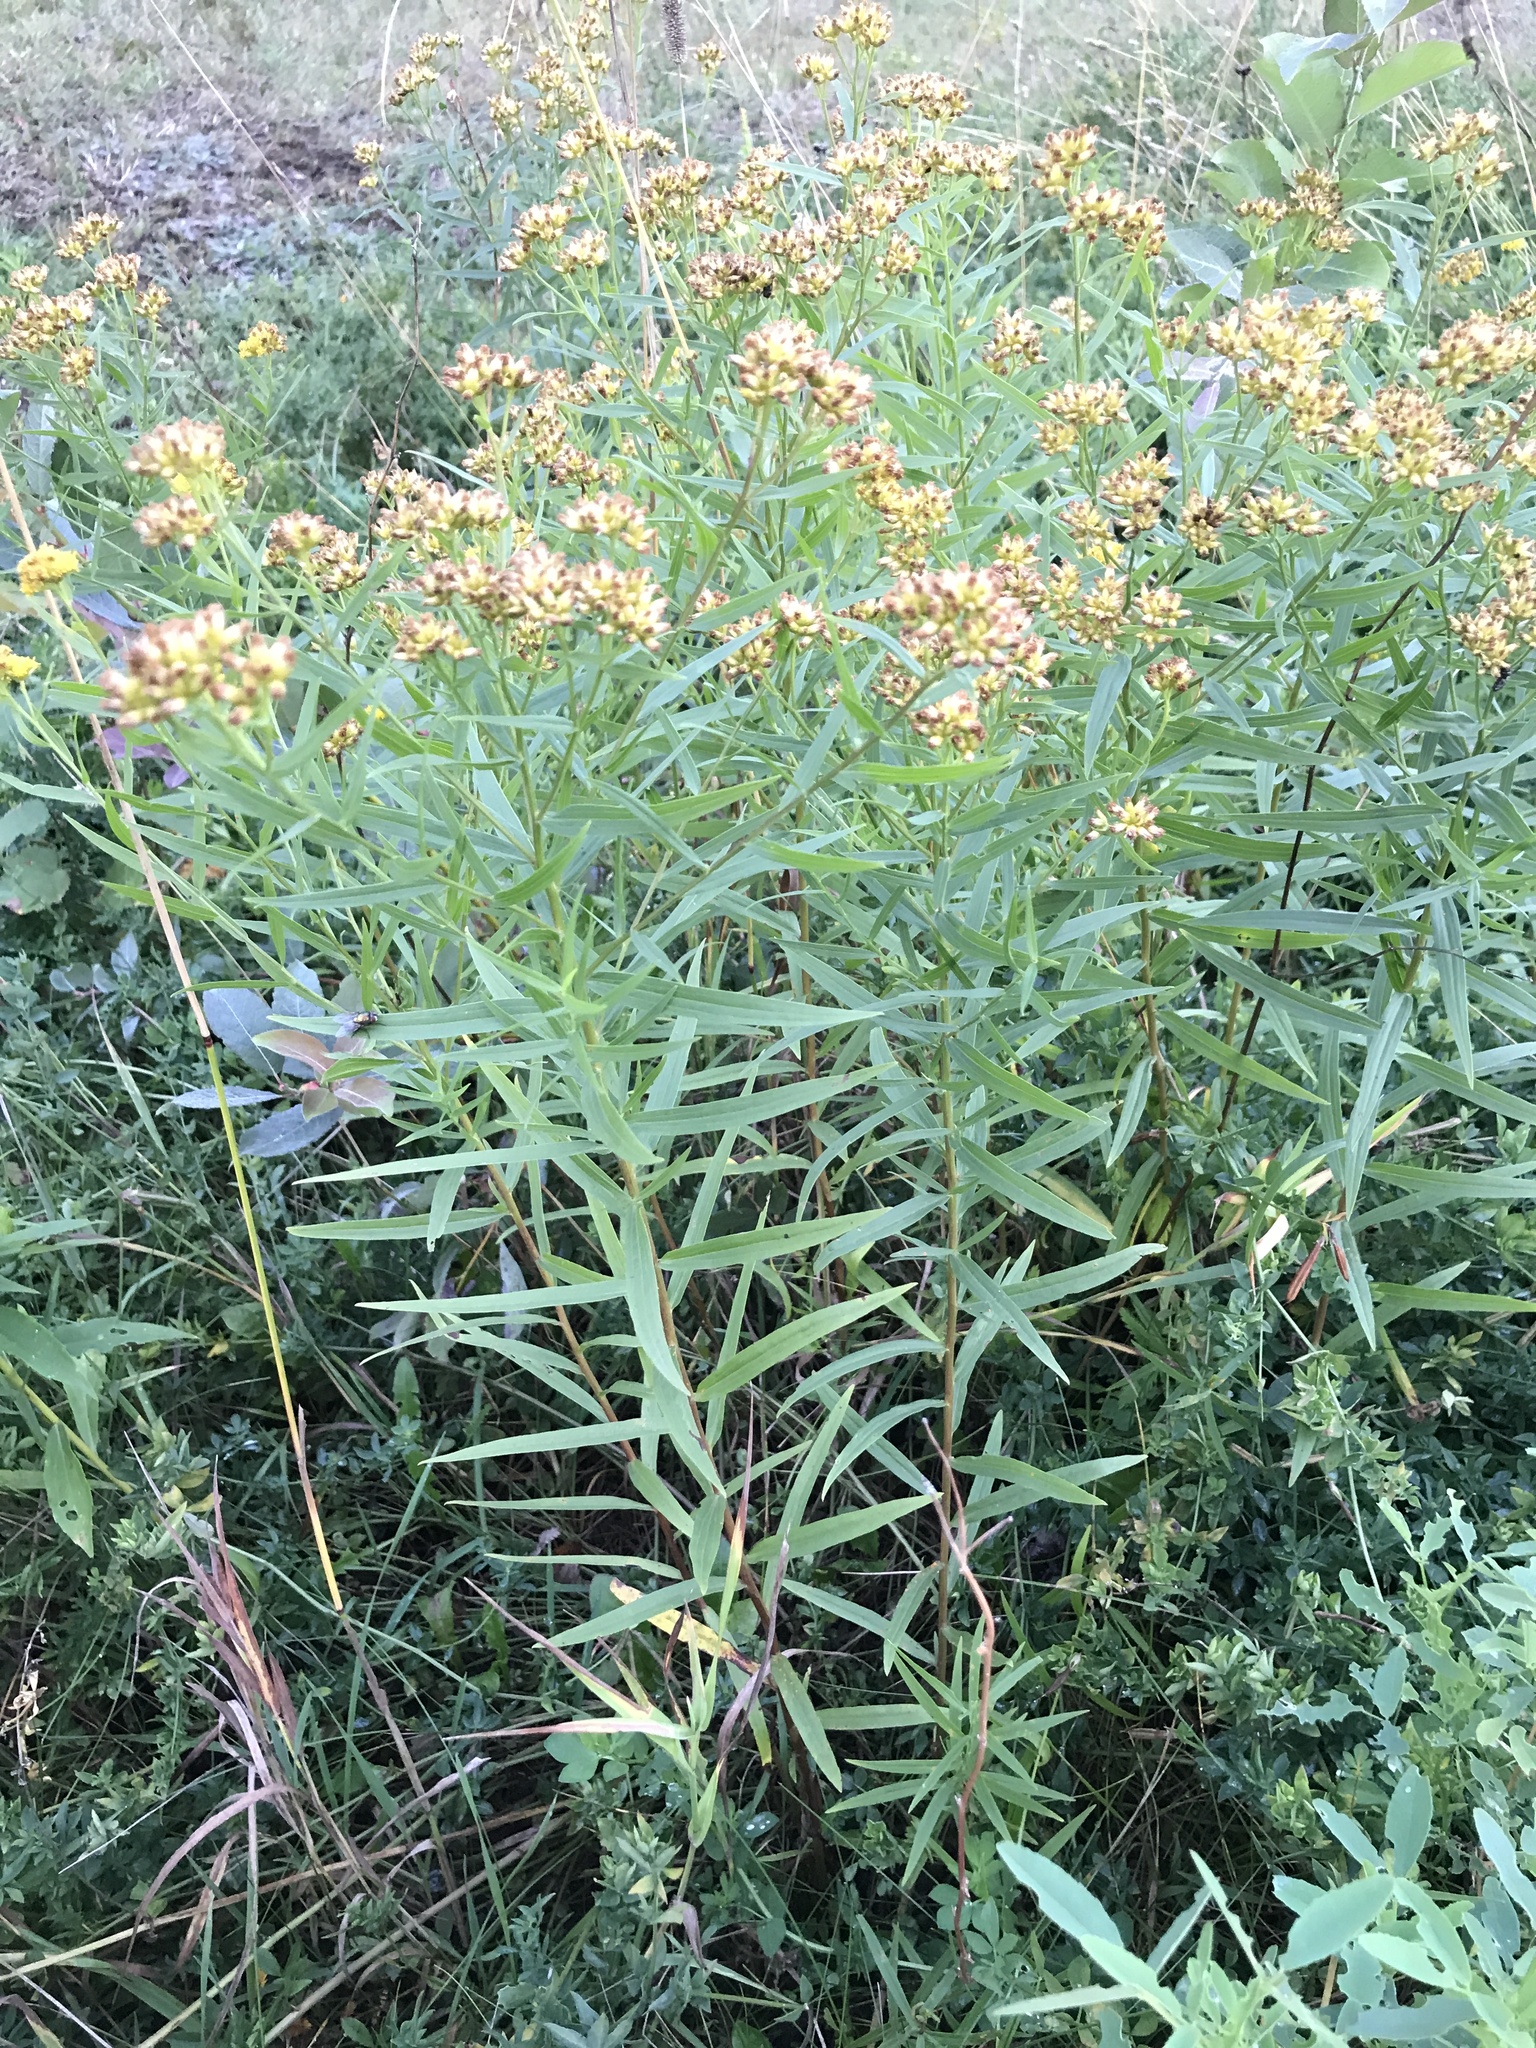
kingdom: Plantae
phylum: Tracheophyta
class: Magnoliopsida
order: Asterales
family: Asteraceae
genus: Euthamia
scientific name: Euthamia graminifolia
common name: Common goldentop
